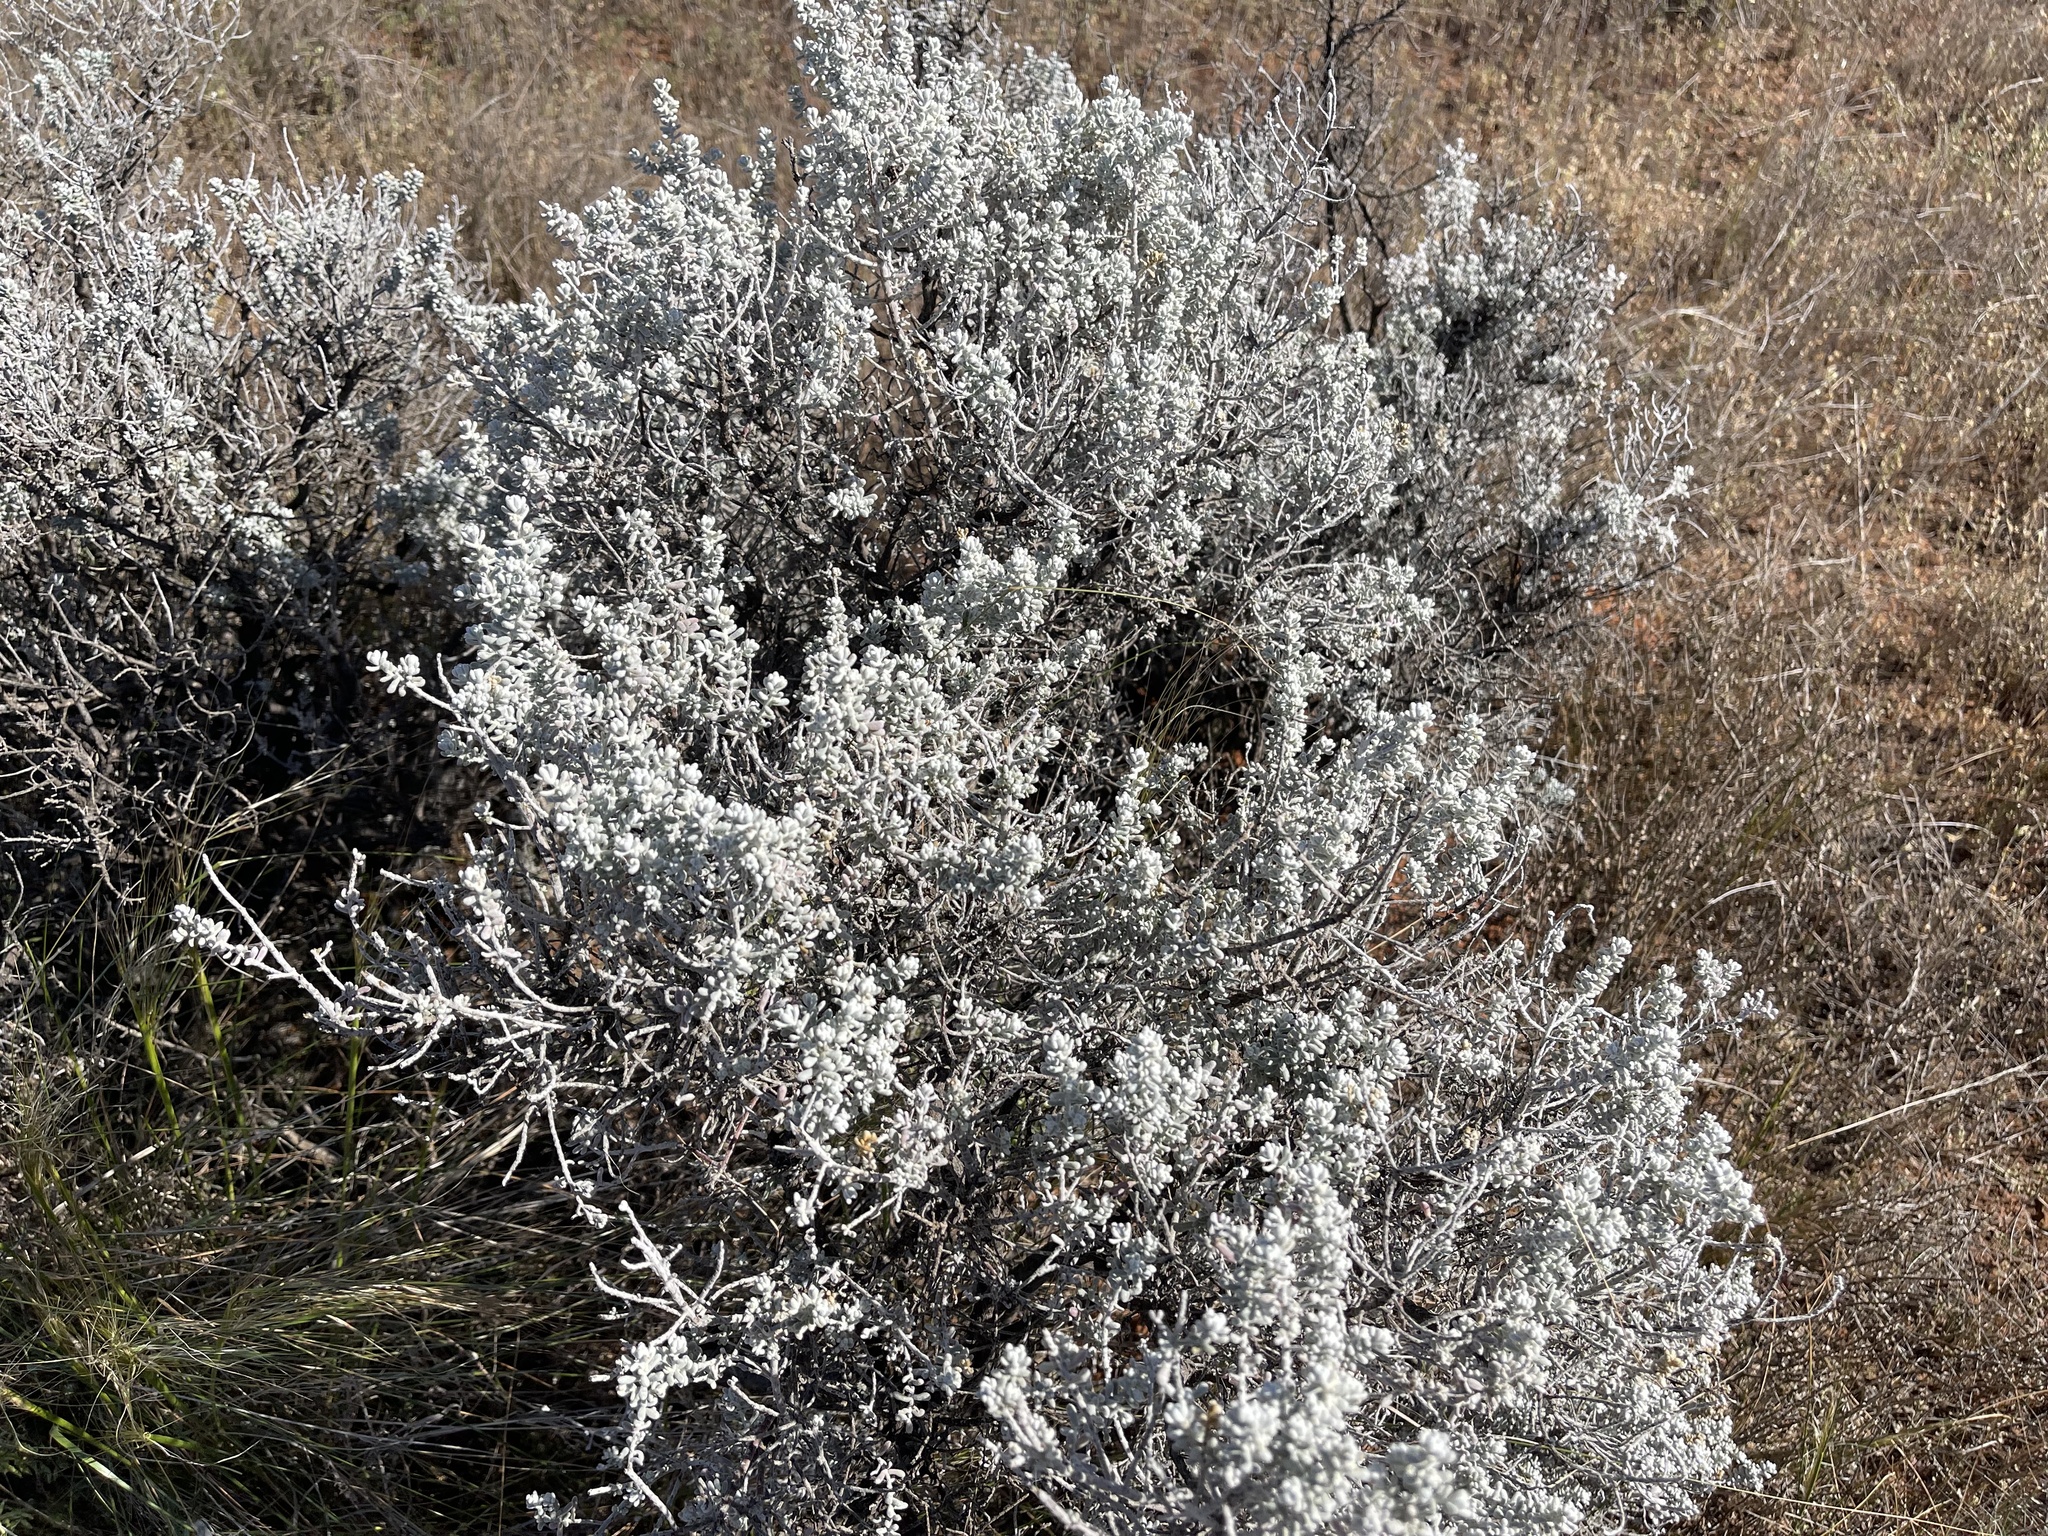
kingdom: Plantae
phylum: Tracheophyta
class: Magnoliopsida
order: Caryophyllales
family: Amaranthaceae
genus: Maireana
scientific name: Maireana sedifolia
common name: Hoary bluebush
